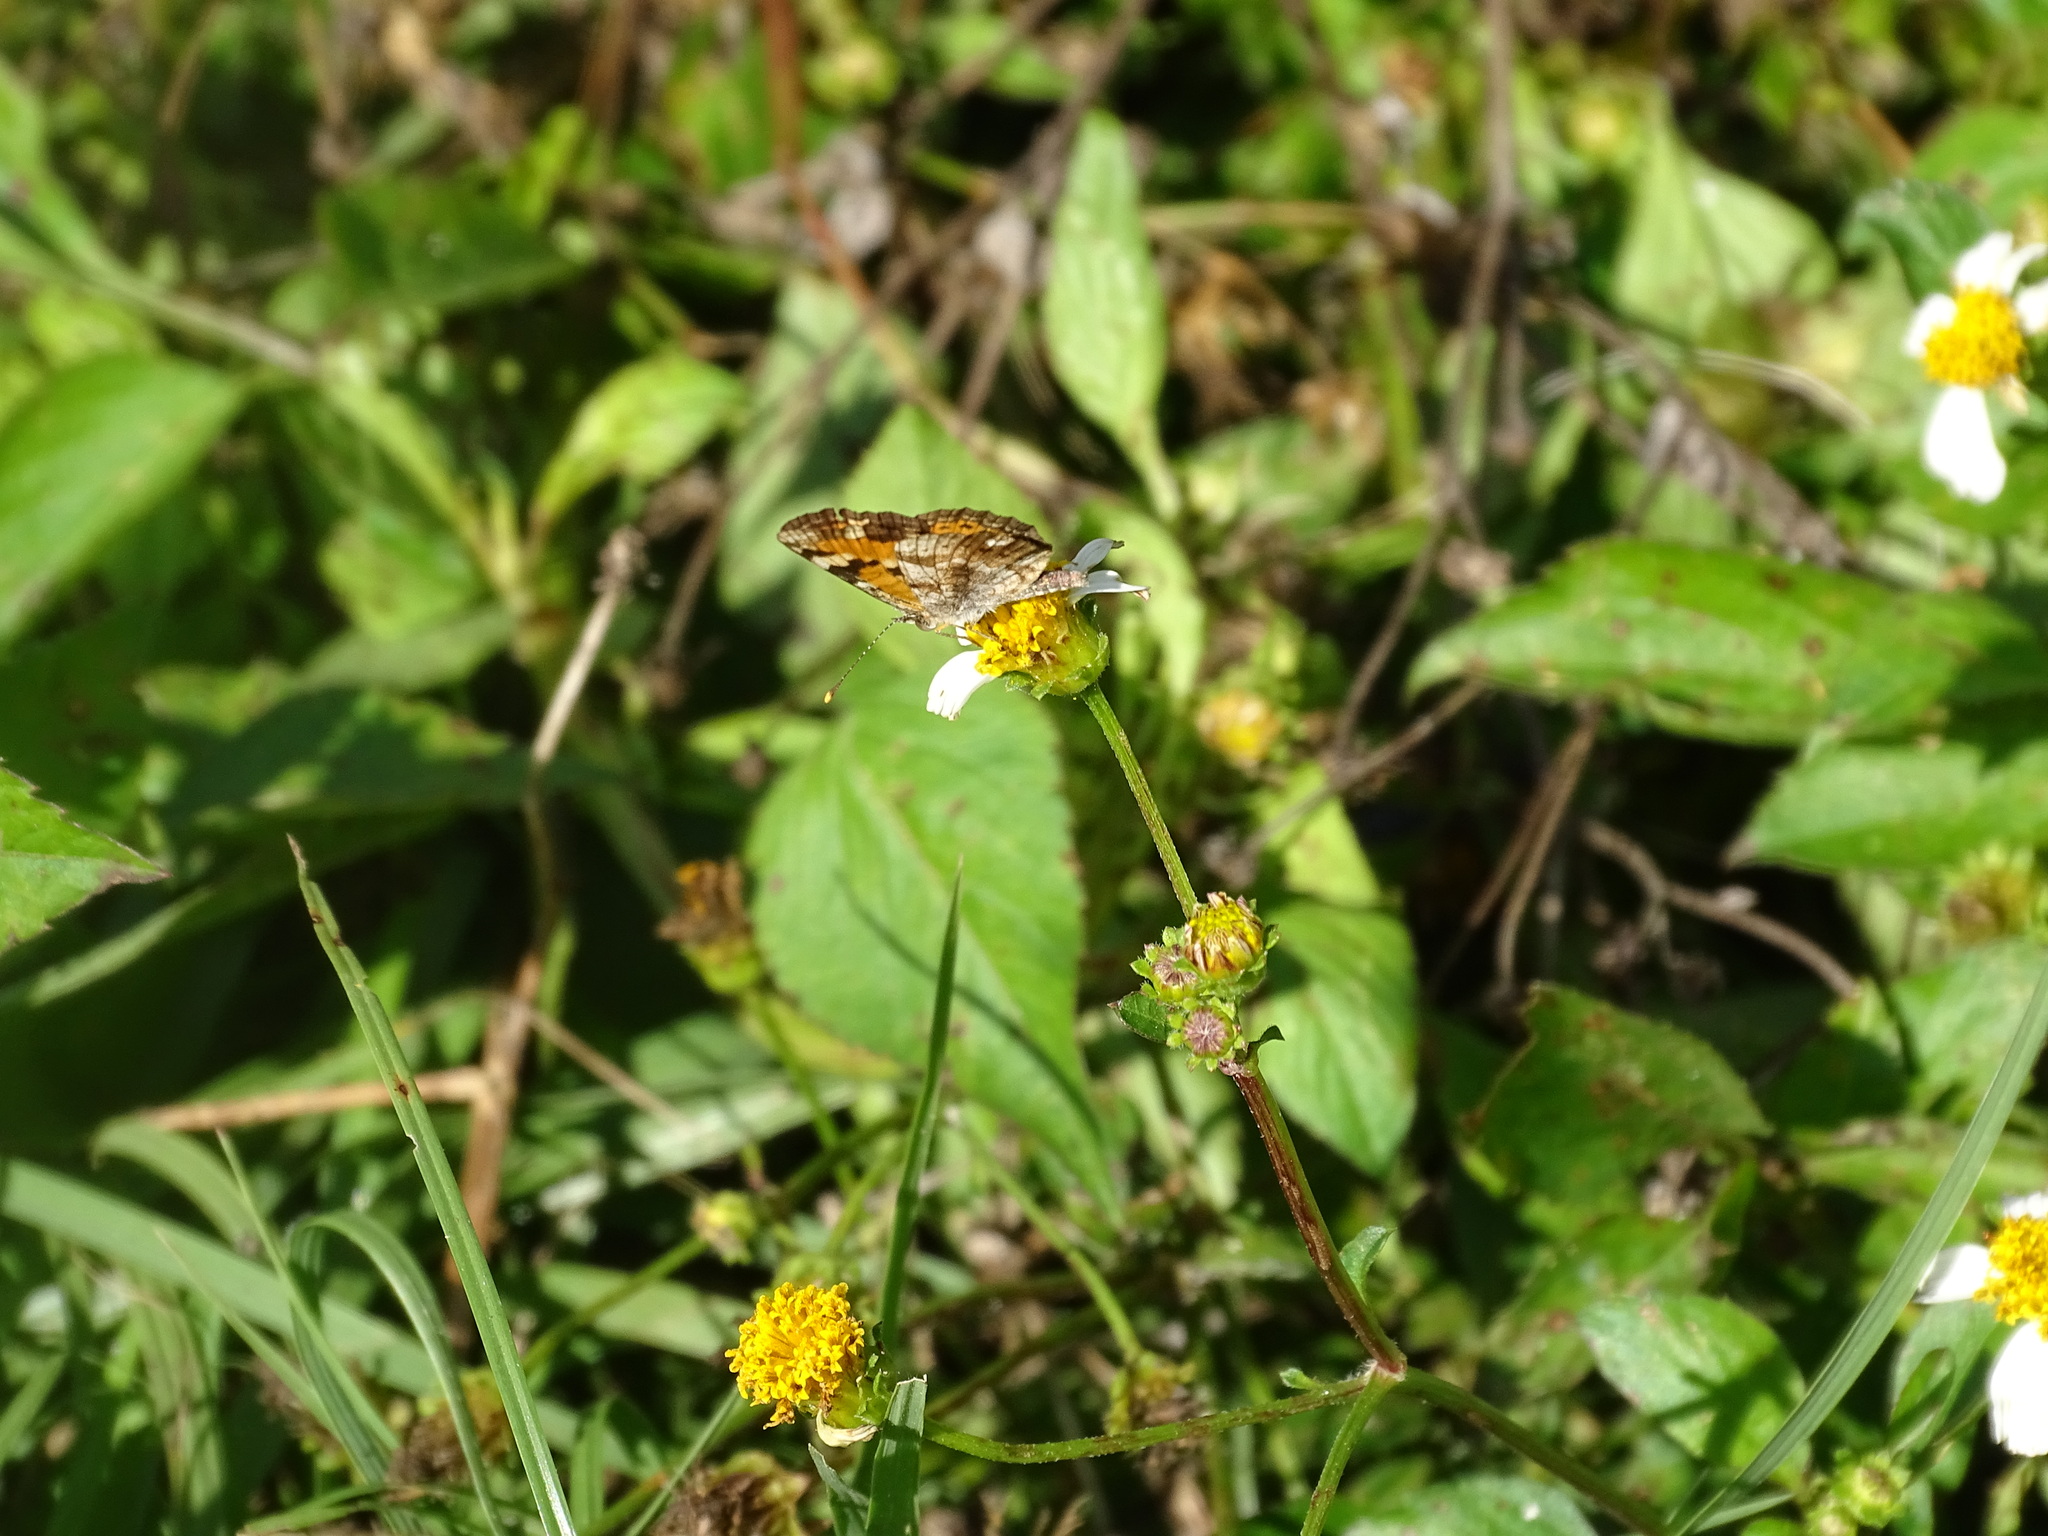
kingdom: Animalia
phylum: Arthropoda
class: Insecta
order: Lepidoptera
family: Nymphalidae
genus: Phyciodes
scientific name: Phyciodes phaon
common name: Phaon crescent
